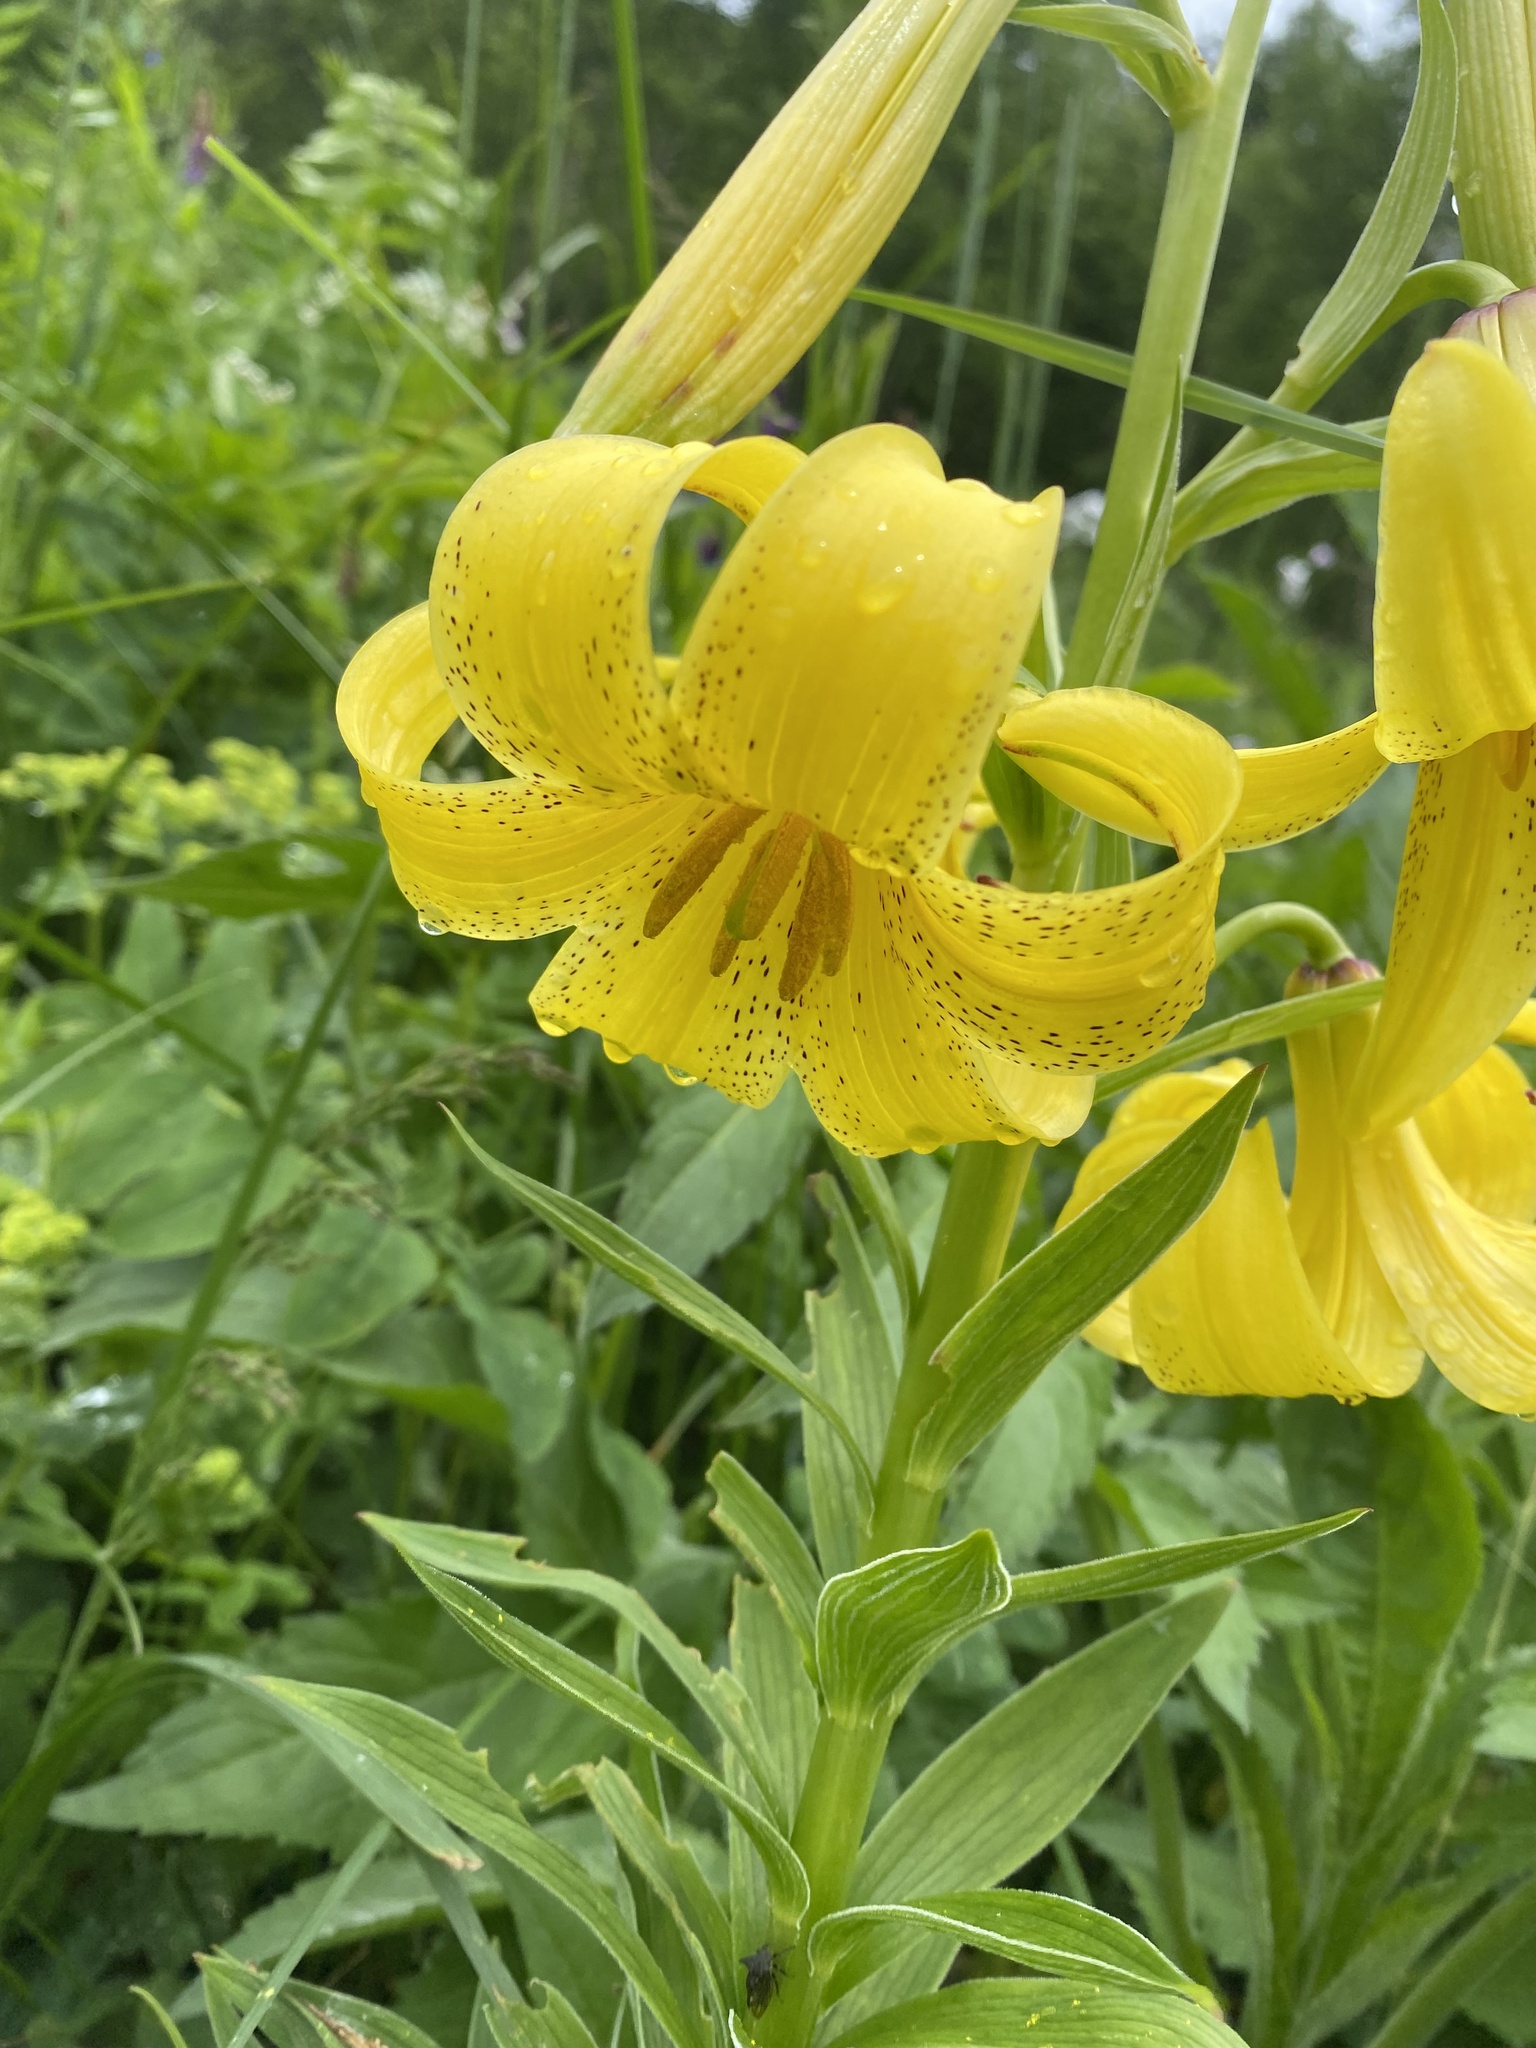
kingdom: Plantae
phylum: Tracheophyta
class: Liliopsida
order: Liliales
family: Liliaceae
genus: Lilium
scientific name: Lilium monadelphum
